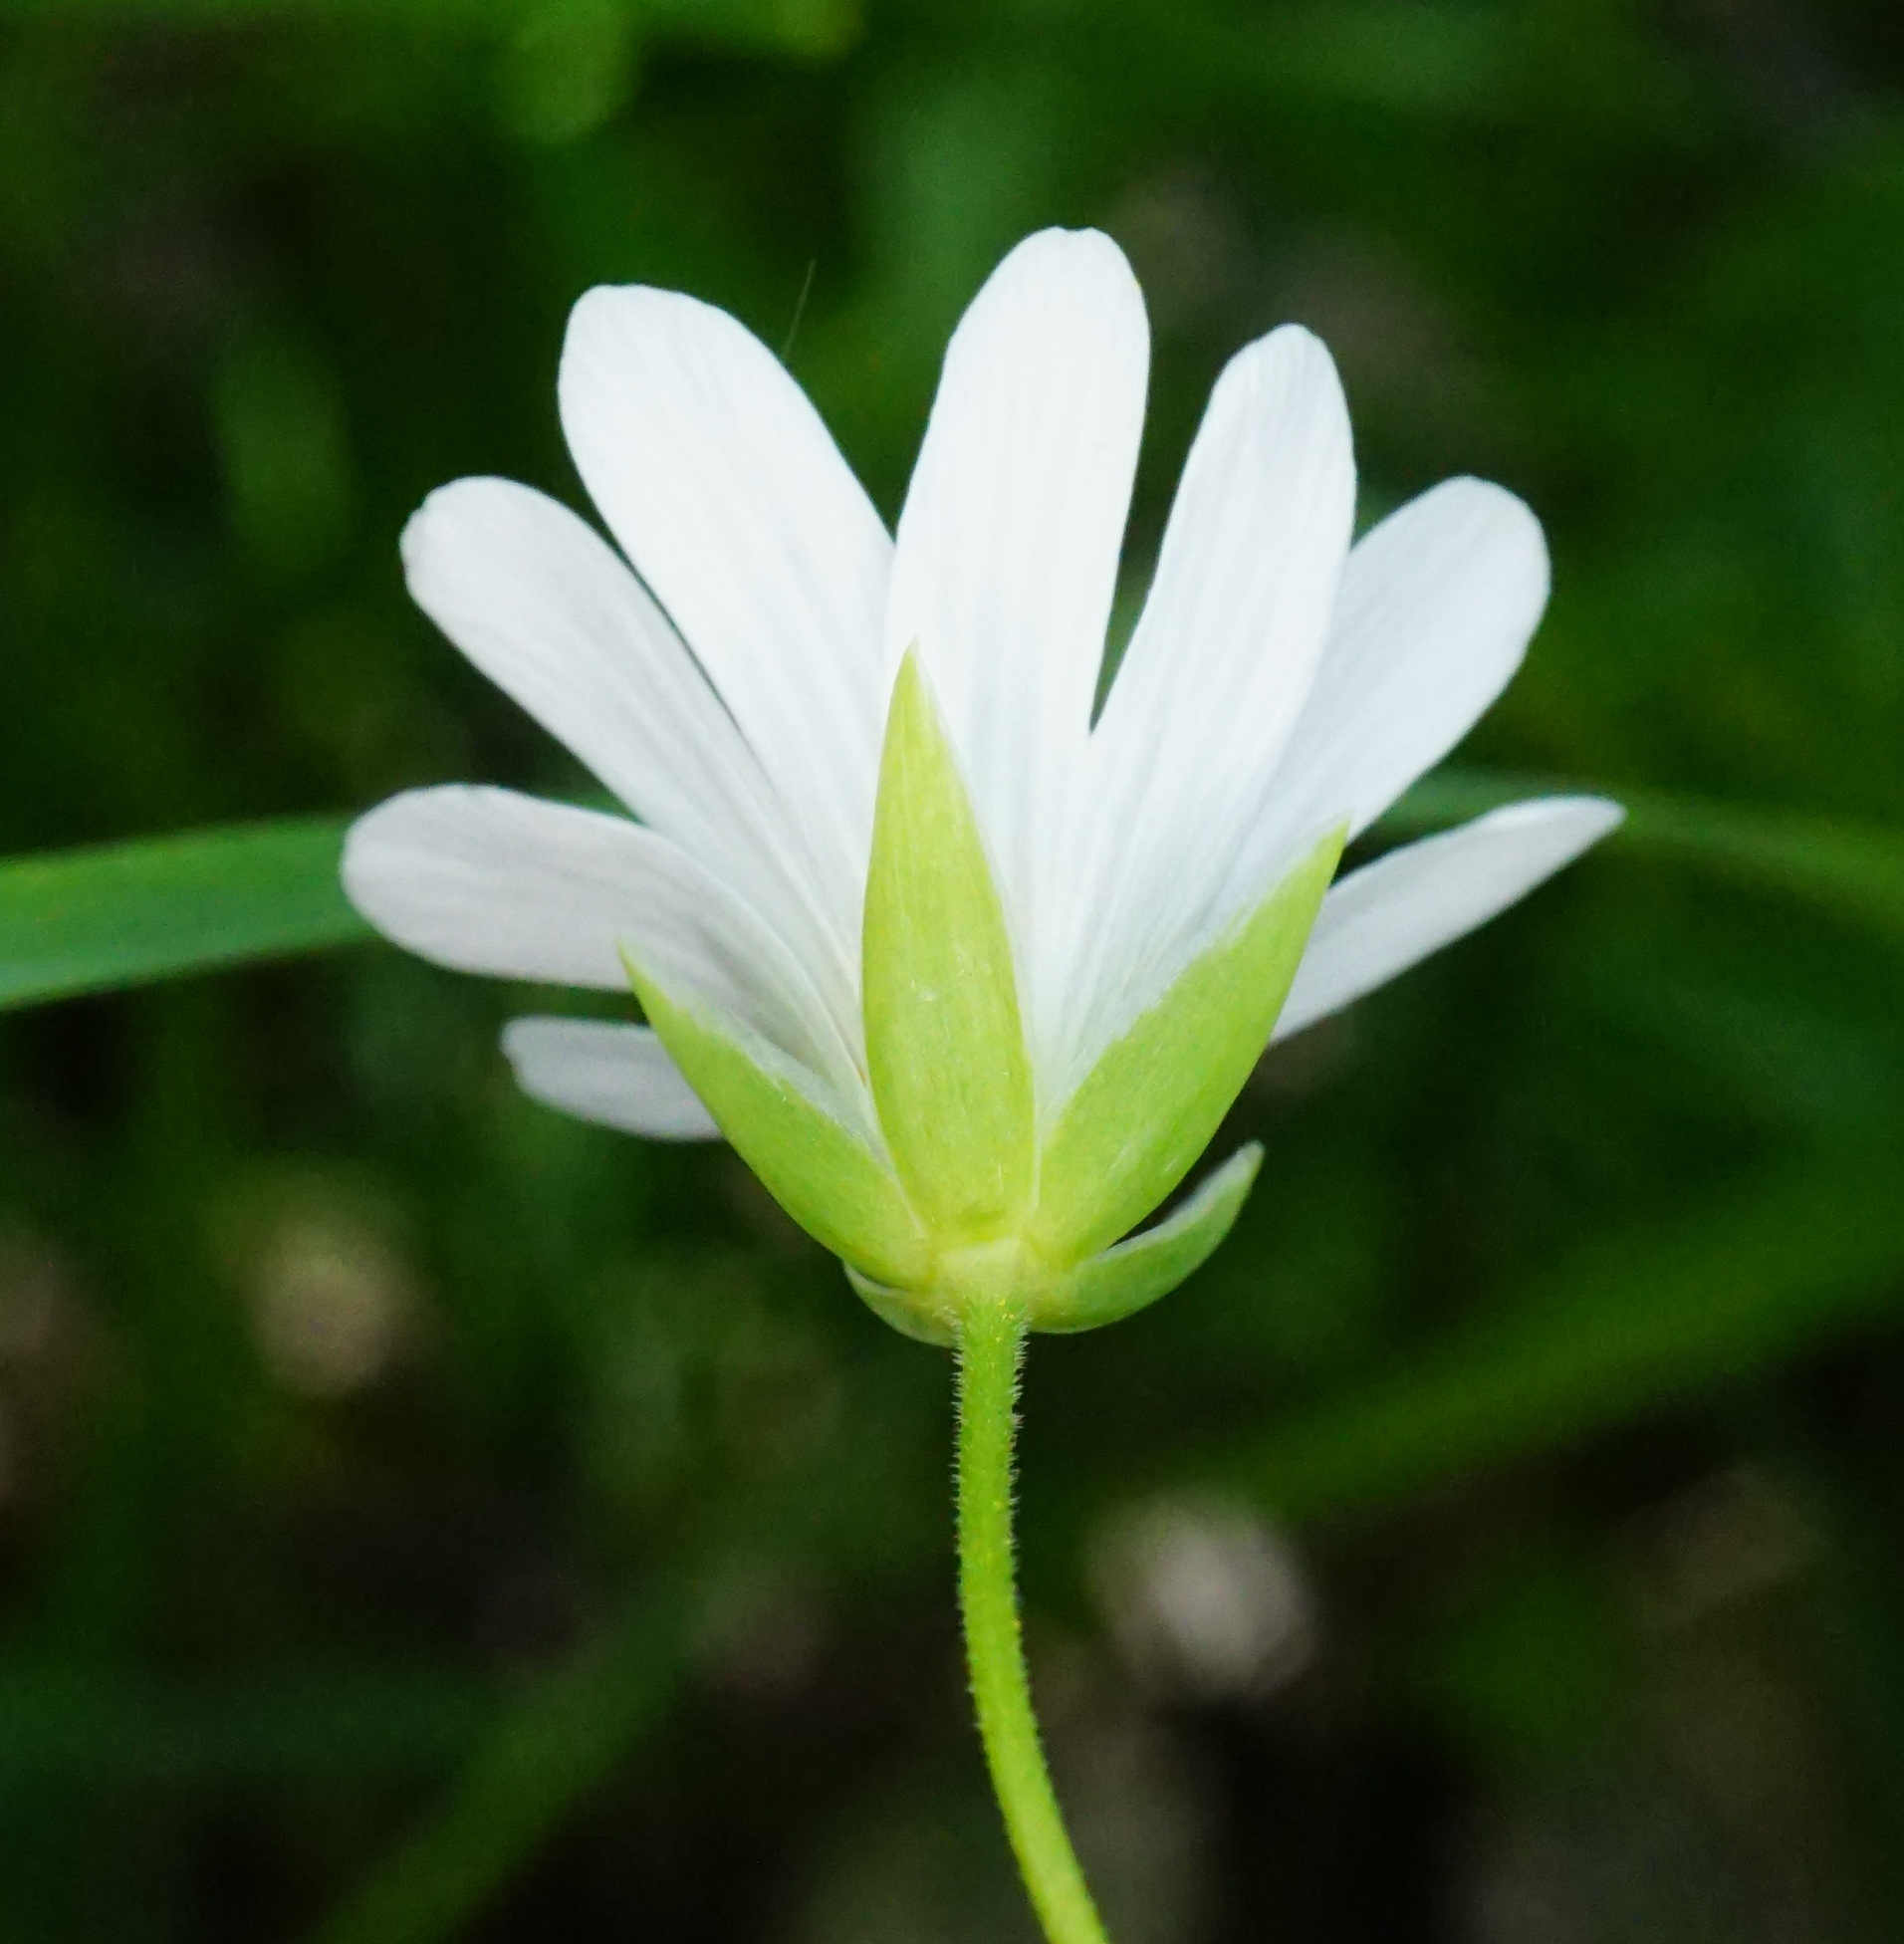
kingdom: Plantae
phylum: Tracheophyta
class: Magnoliopsida
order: Caryophyllales
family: Caryophyllaceae
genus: Rabelera
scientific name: Rabelera holostea
